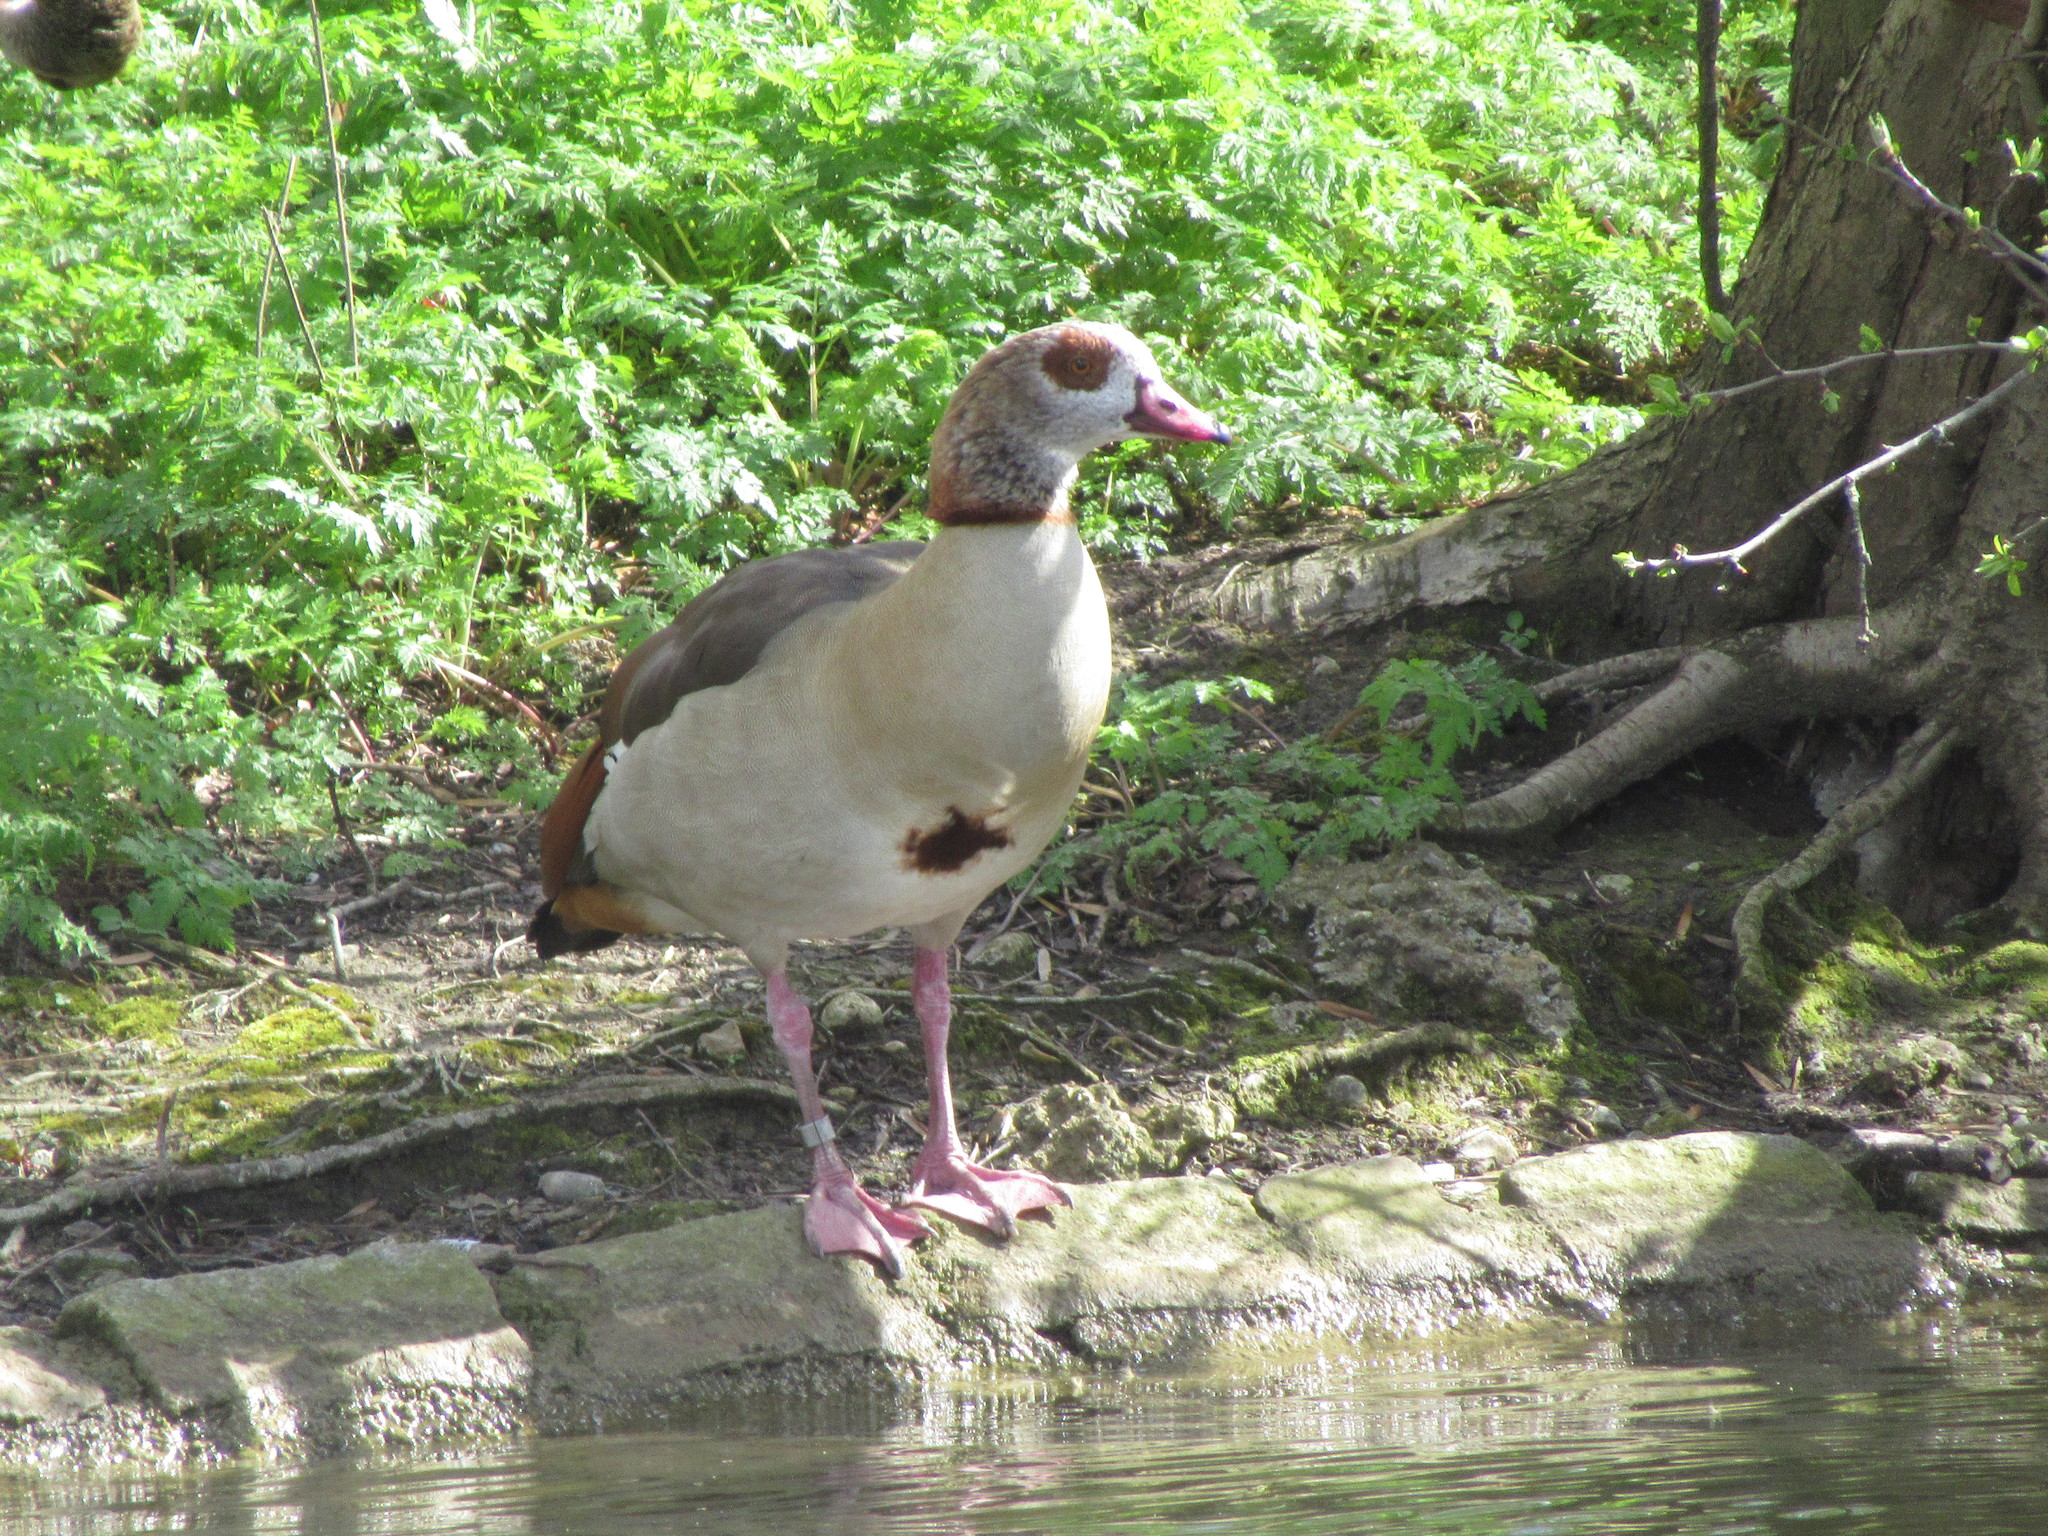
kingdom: Animalia
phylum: Chordata
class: Aves
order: Anseriformes
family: Anatidae
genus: Alopochen
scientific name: Alopochen aegyptiaca
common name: Egyptian goose
